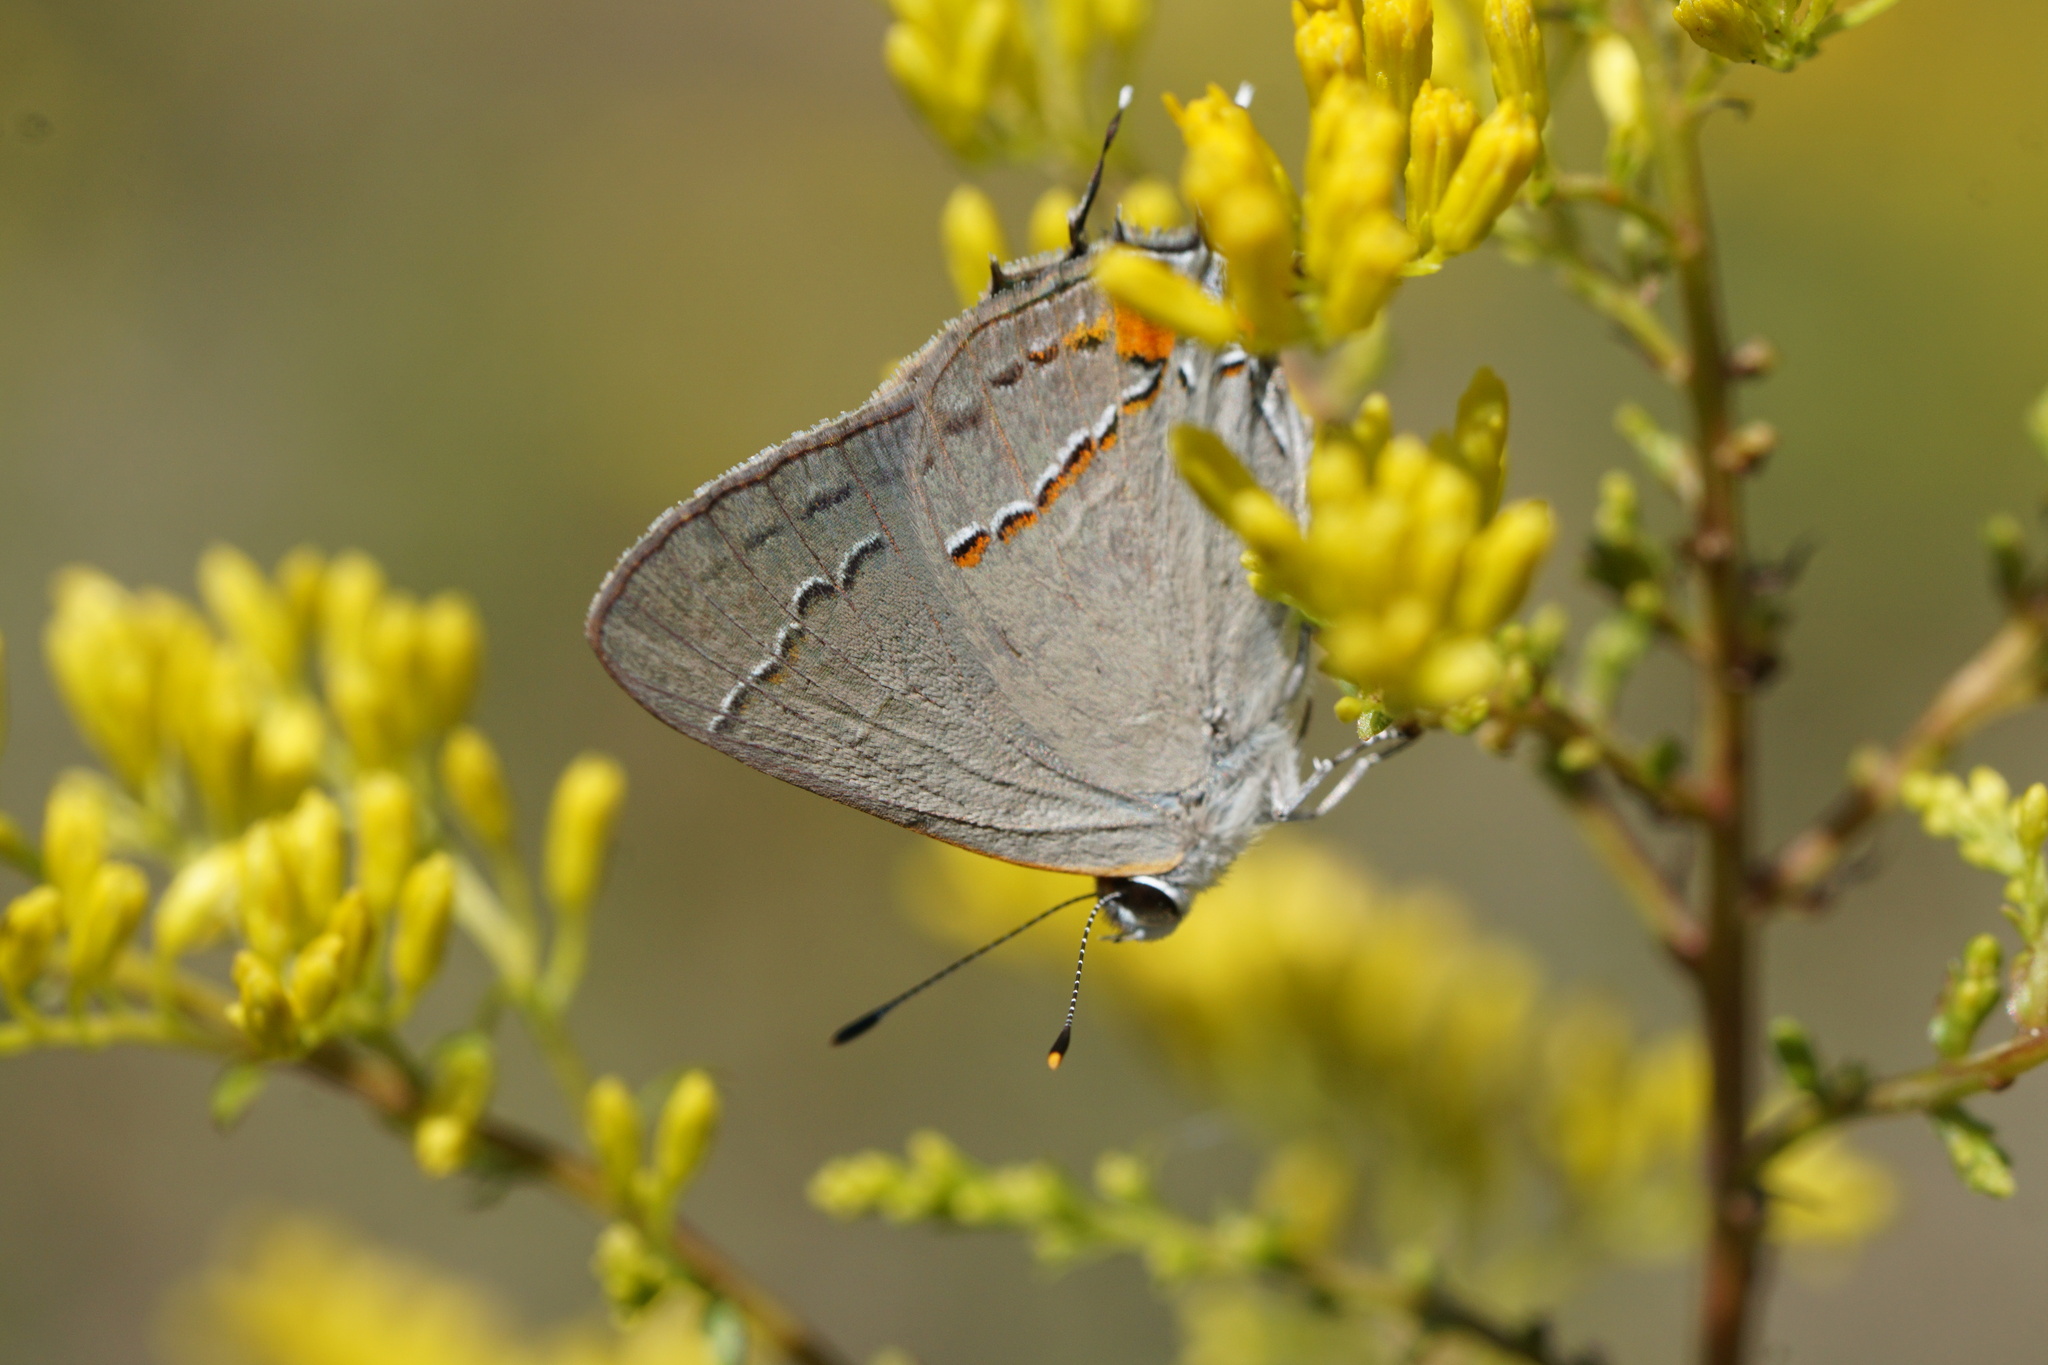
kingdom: Animalia
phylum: Arthropoda
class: Insecta
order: Lepidoptera
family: Lycaenidae
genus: Strymon
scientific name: Strymon melinus
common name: Gray hairstreak
